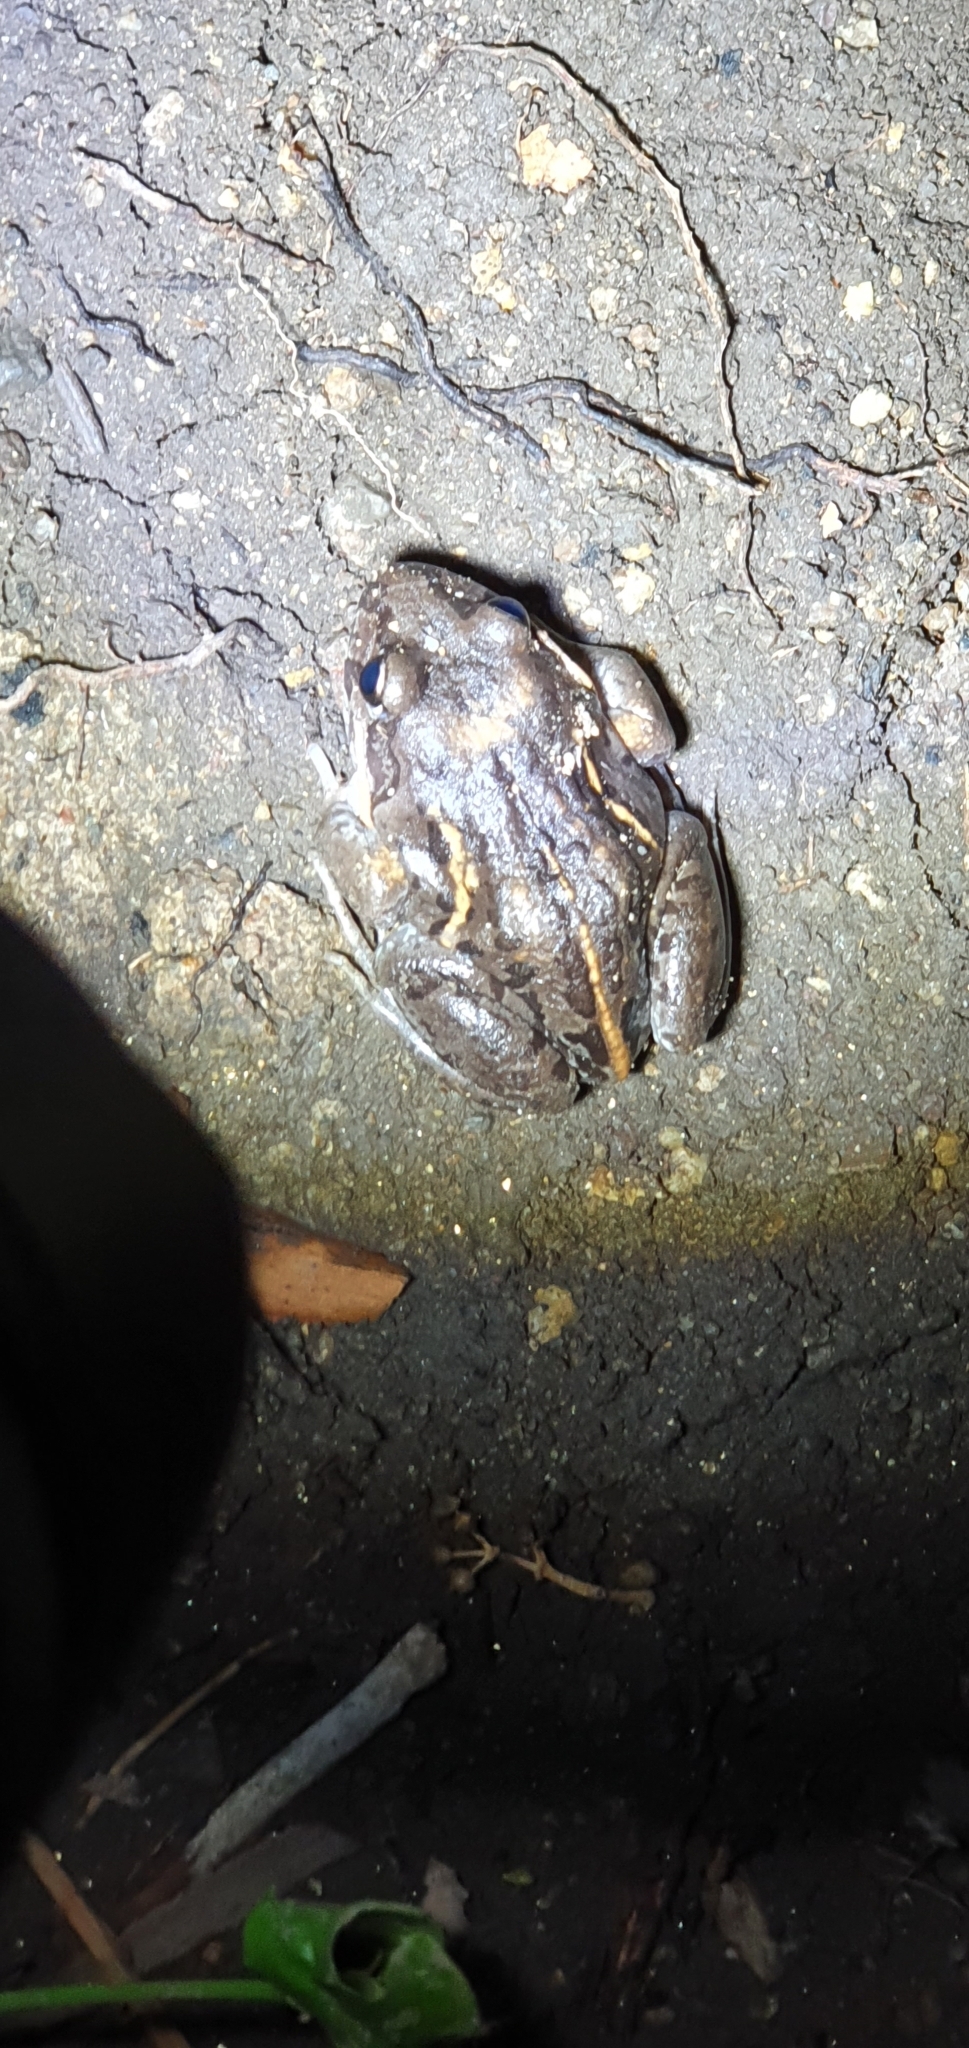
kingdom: Animalia
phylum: Chordata
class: Amphibia
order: Anura
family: Limnodynastidae
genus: Limnodynastes
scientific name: Limnodynastes salmini
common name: Salmon-striped frog
